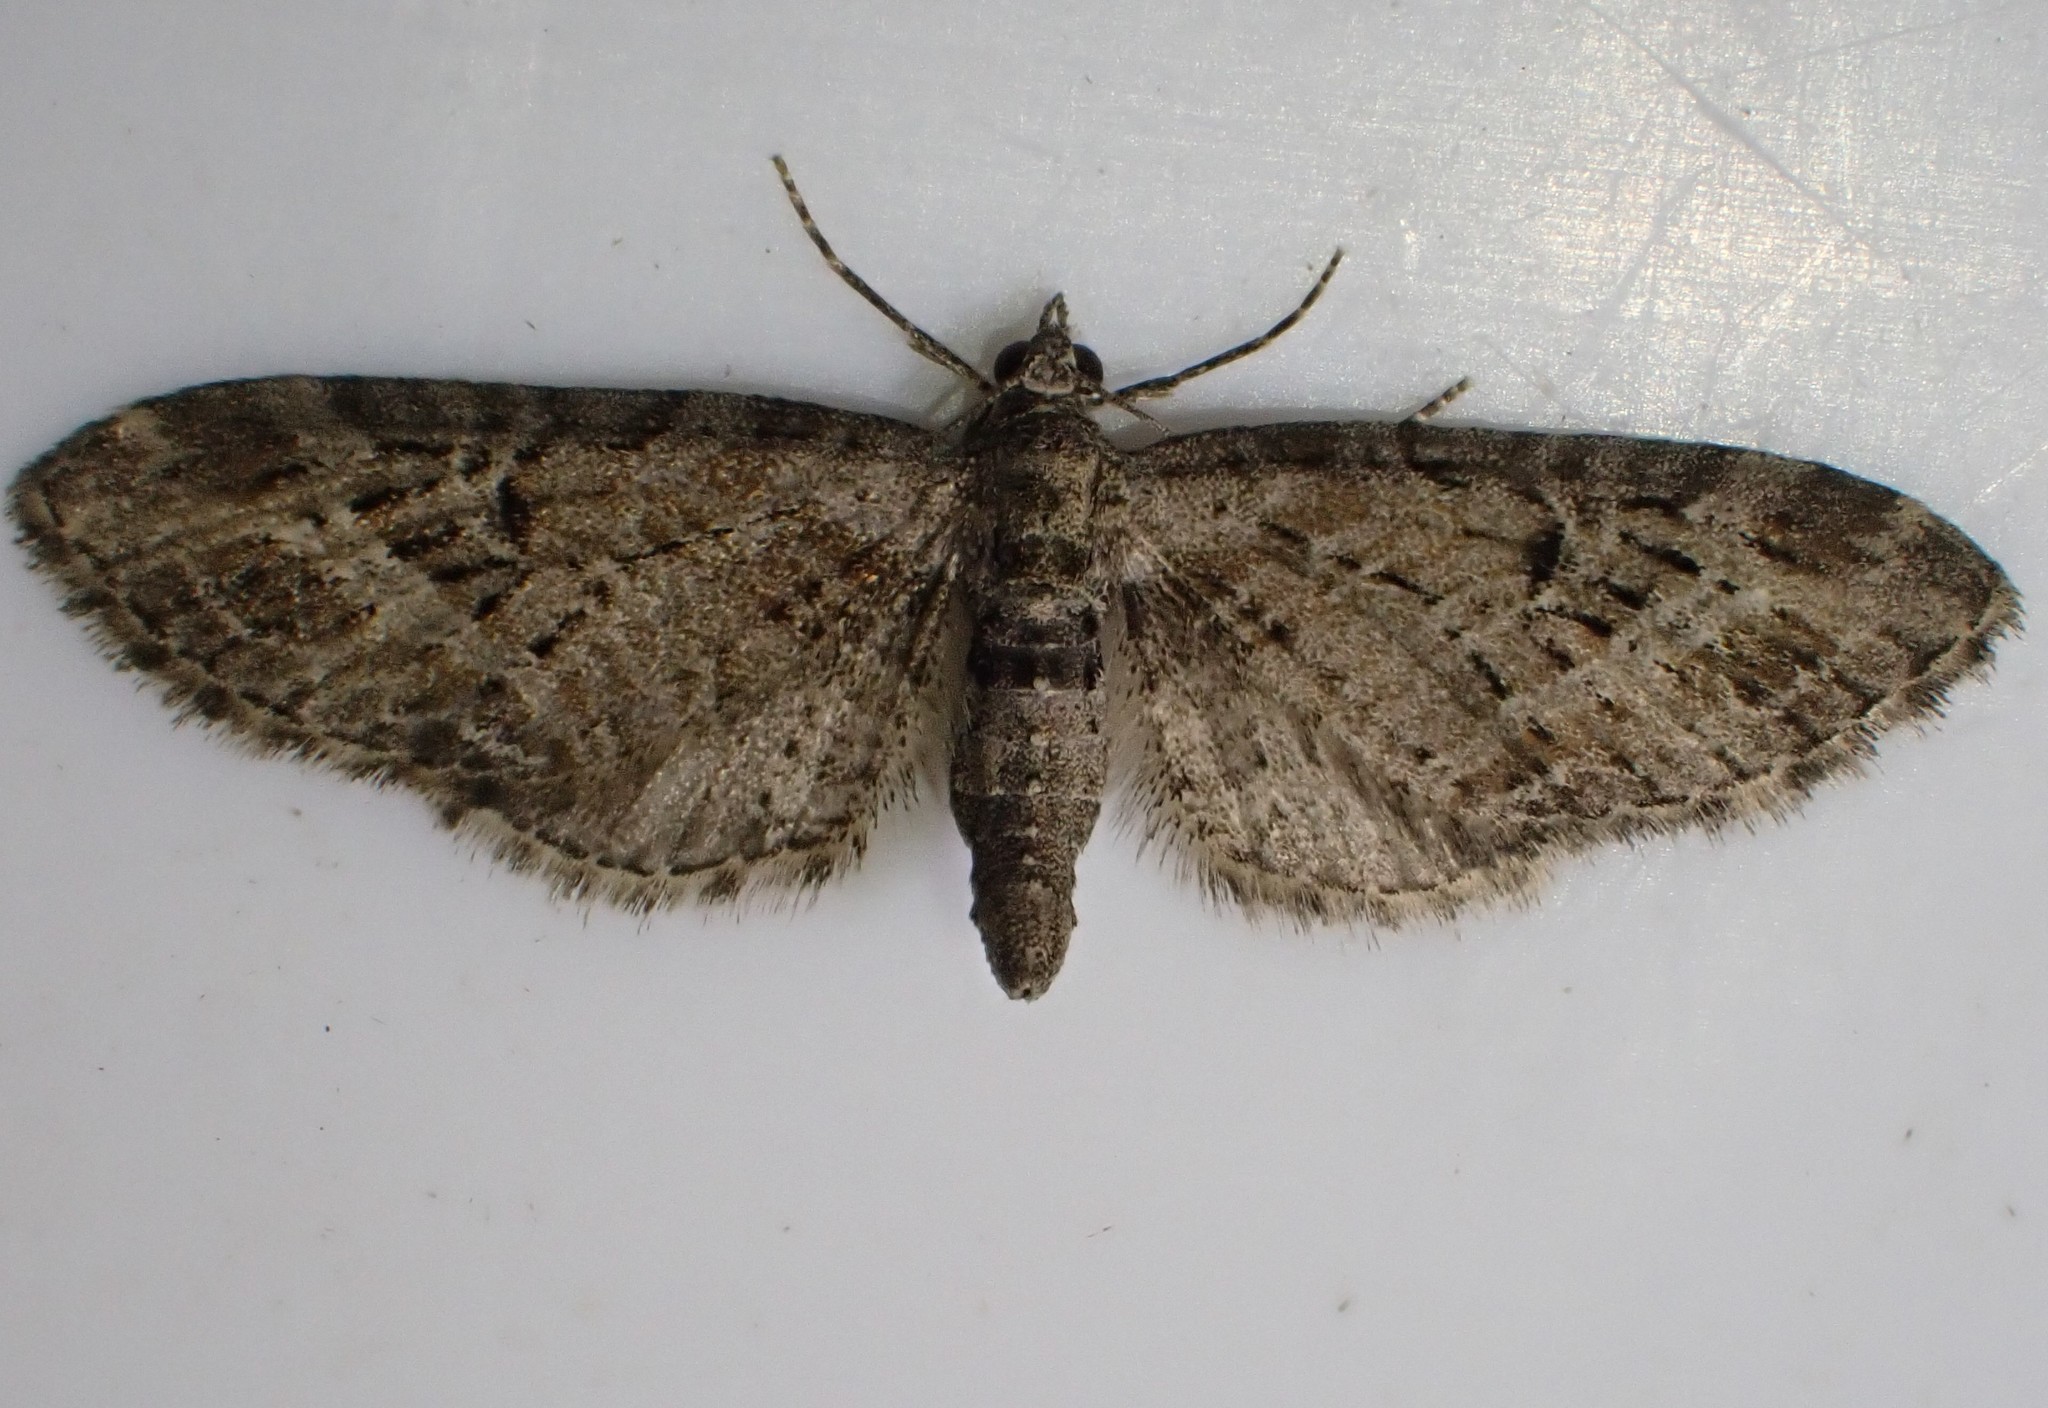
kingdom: Animalia
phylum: Arthropoda
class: Insecta
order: Lepidoptera
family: Geometridae
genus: Eupithecia
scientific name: Eupithecia exiguata
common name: Mottled pug
